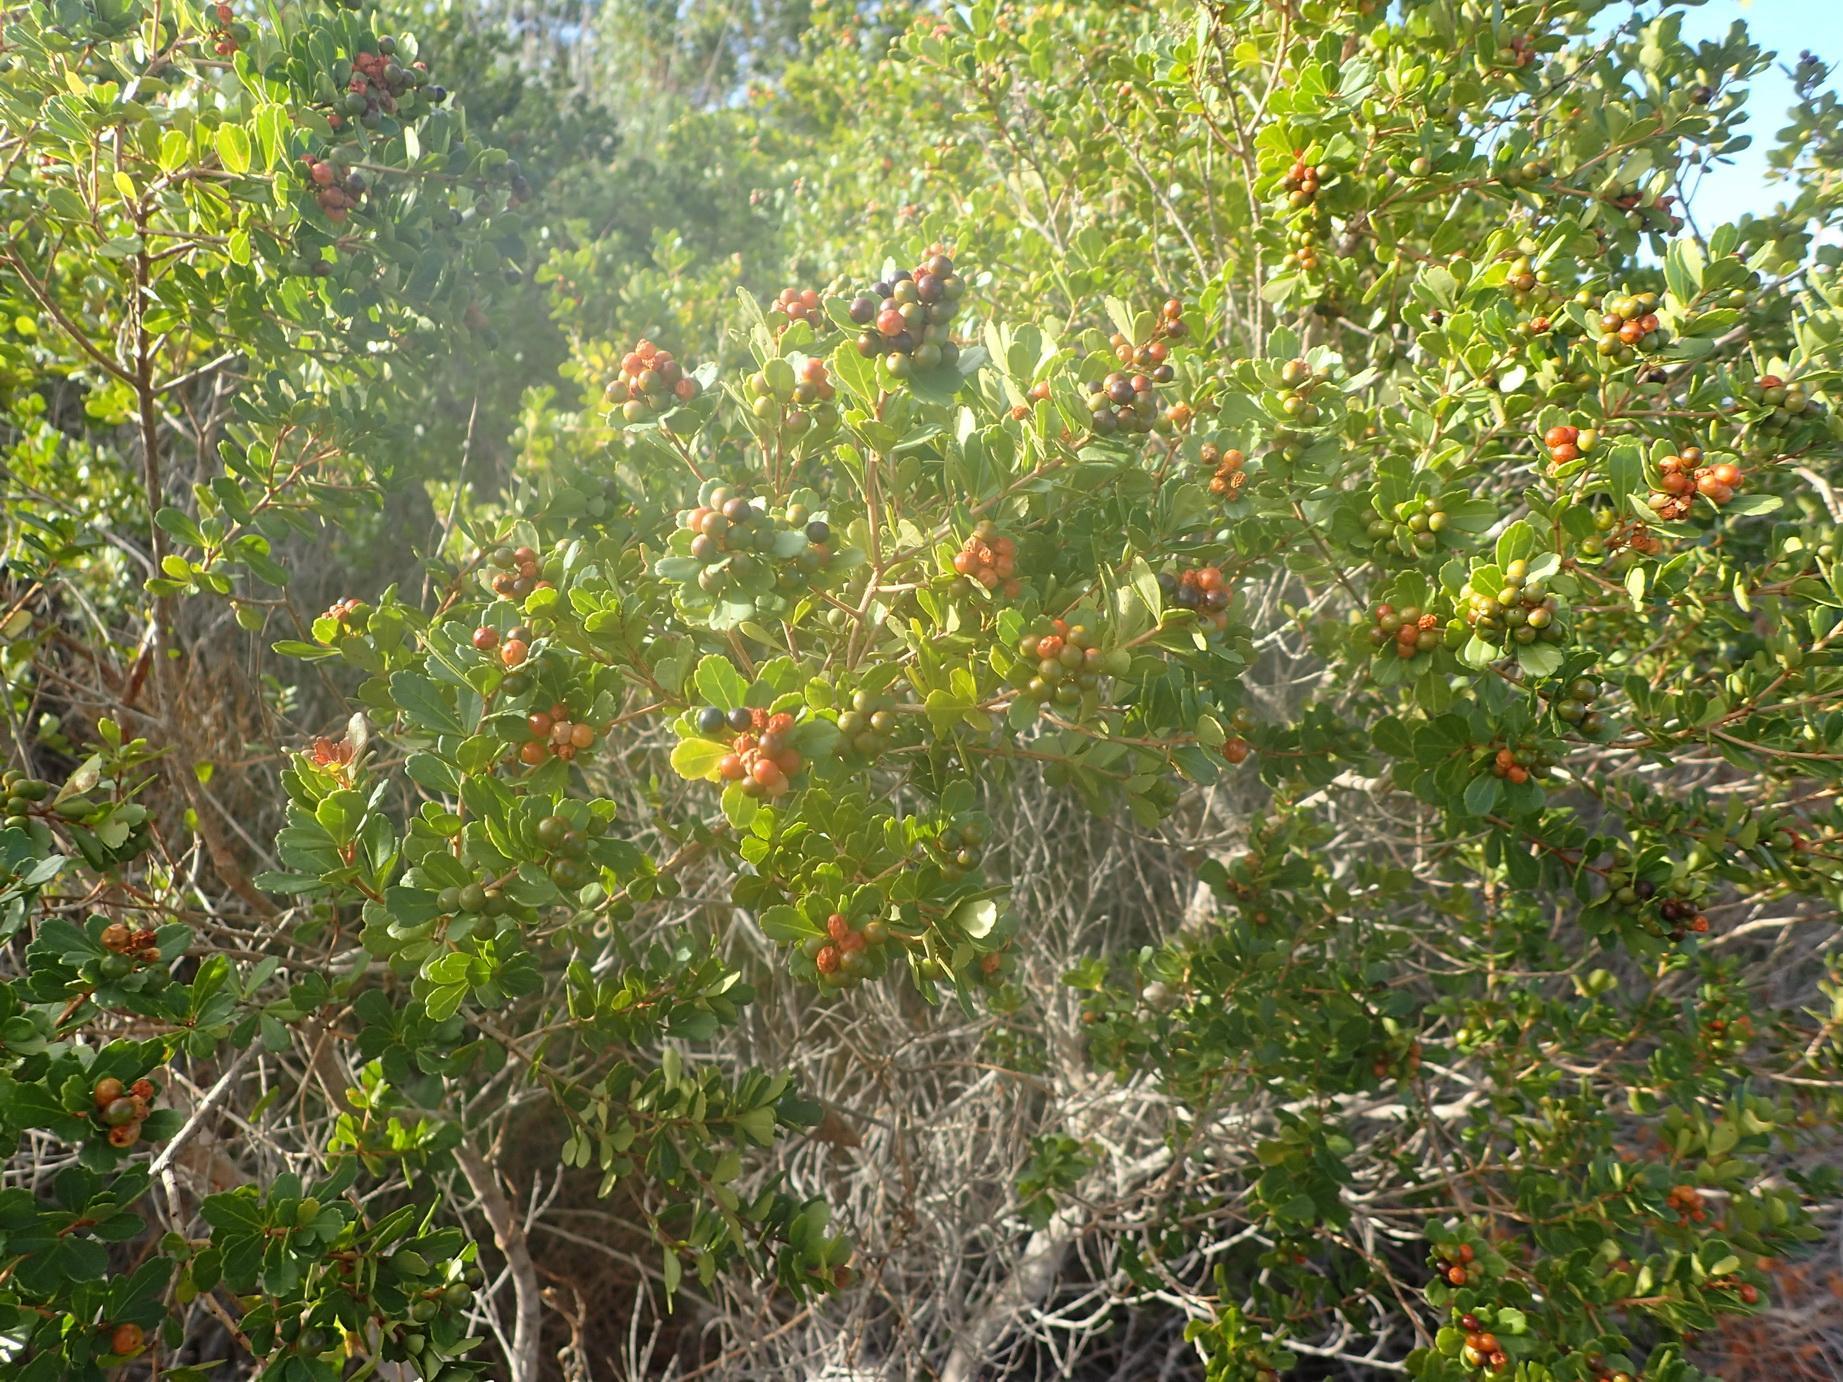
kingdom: Plantae
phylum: Tracheophyta
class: Magnoliopsida
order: Sapindales
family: Anacardiaceae
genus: Searsia
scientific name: Searsia crenata
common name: Crowberry
